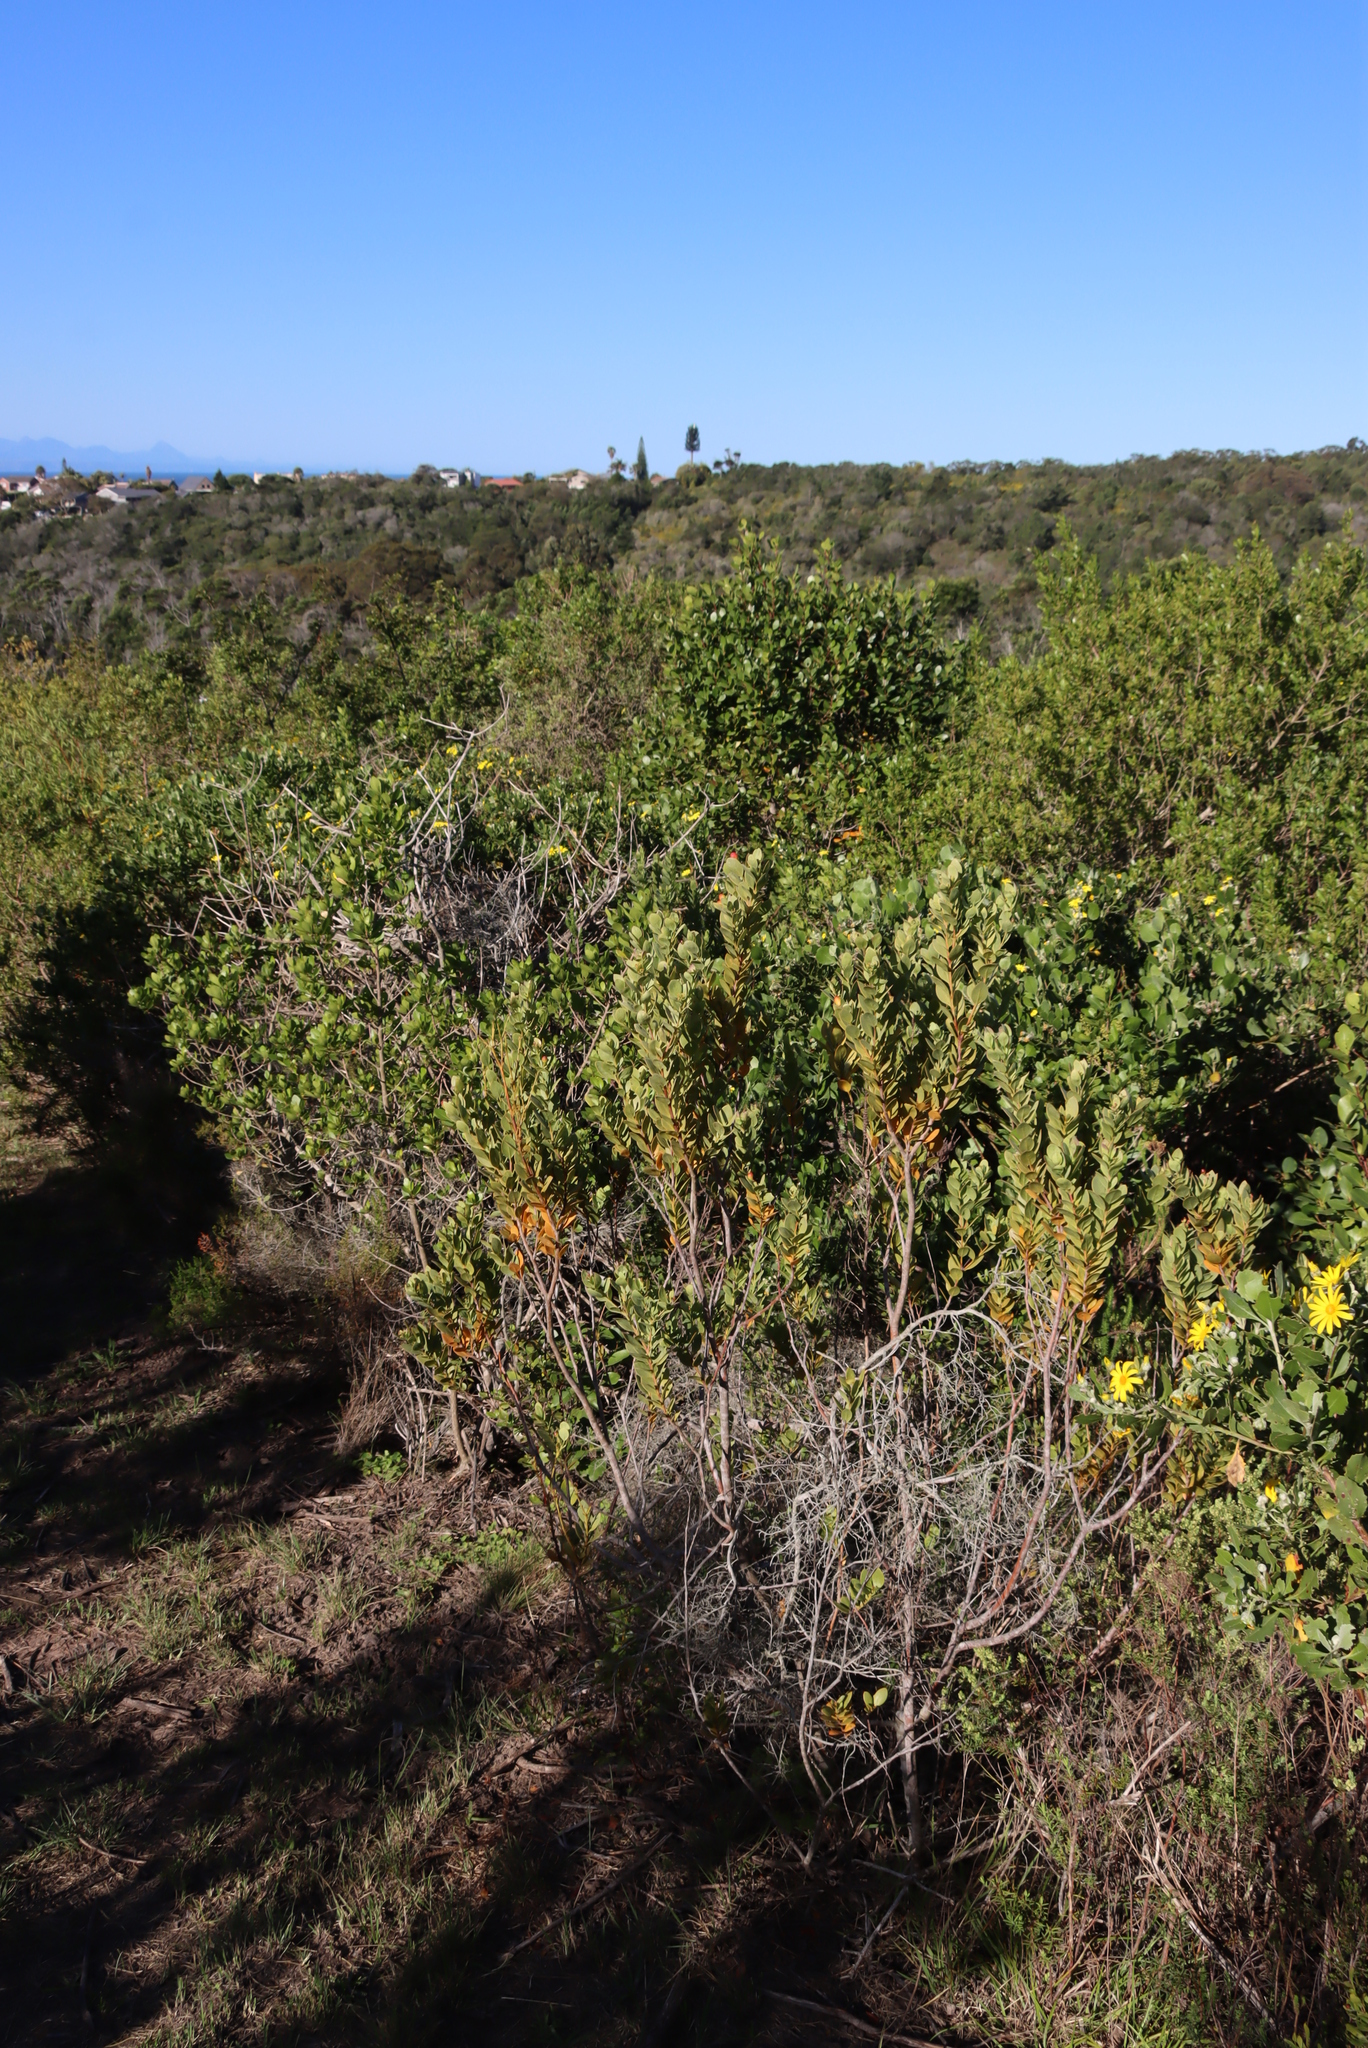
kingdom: Plantae
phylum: Tracheophyta
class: Magnoliopsida
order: Santalales
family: Santalaceae
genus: Osyris
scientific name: Osyris compressa
